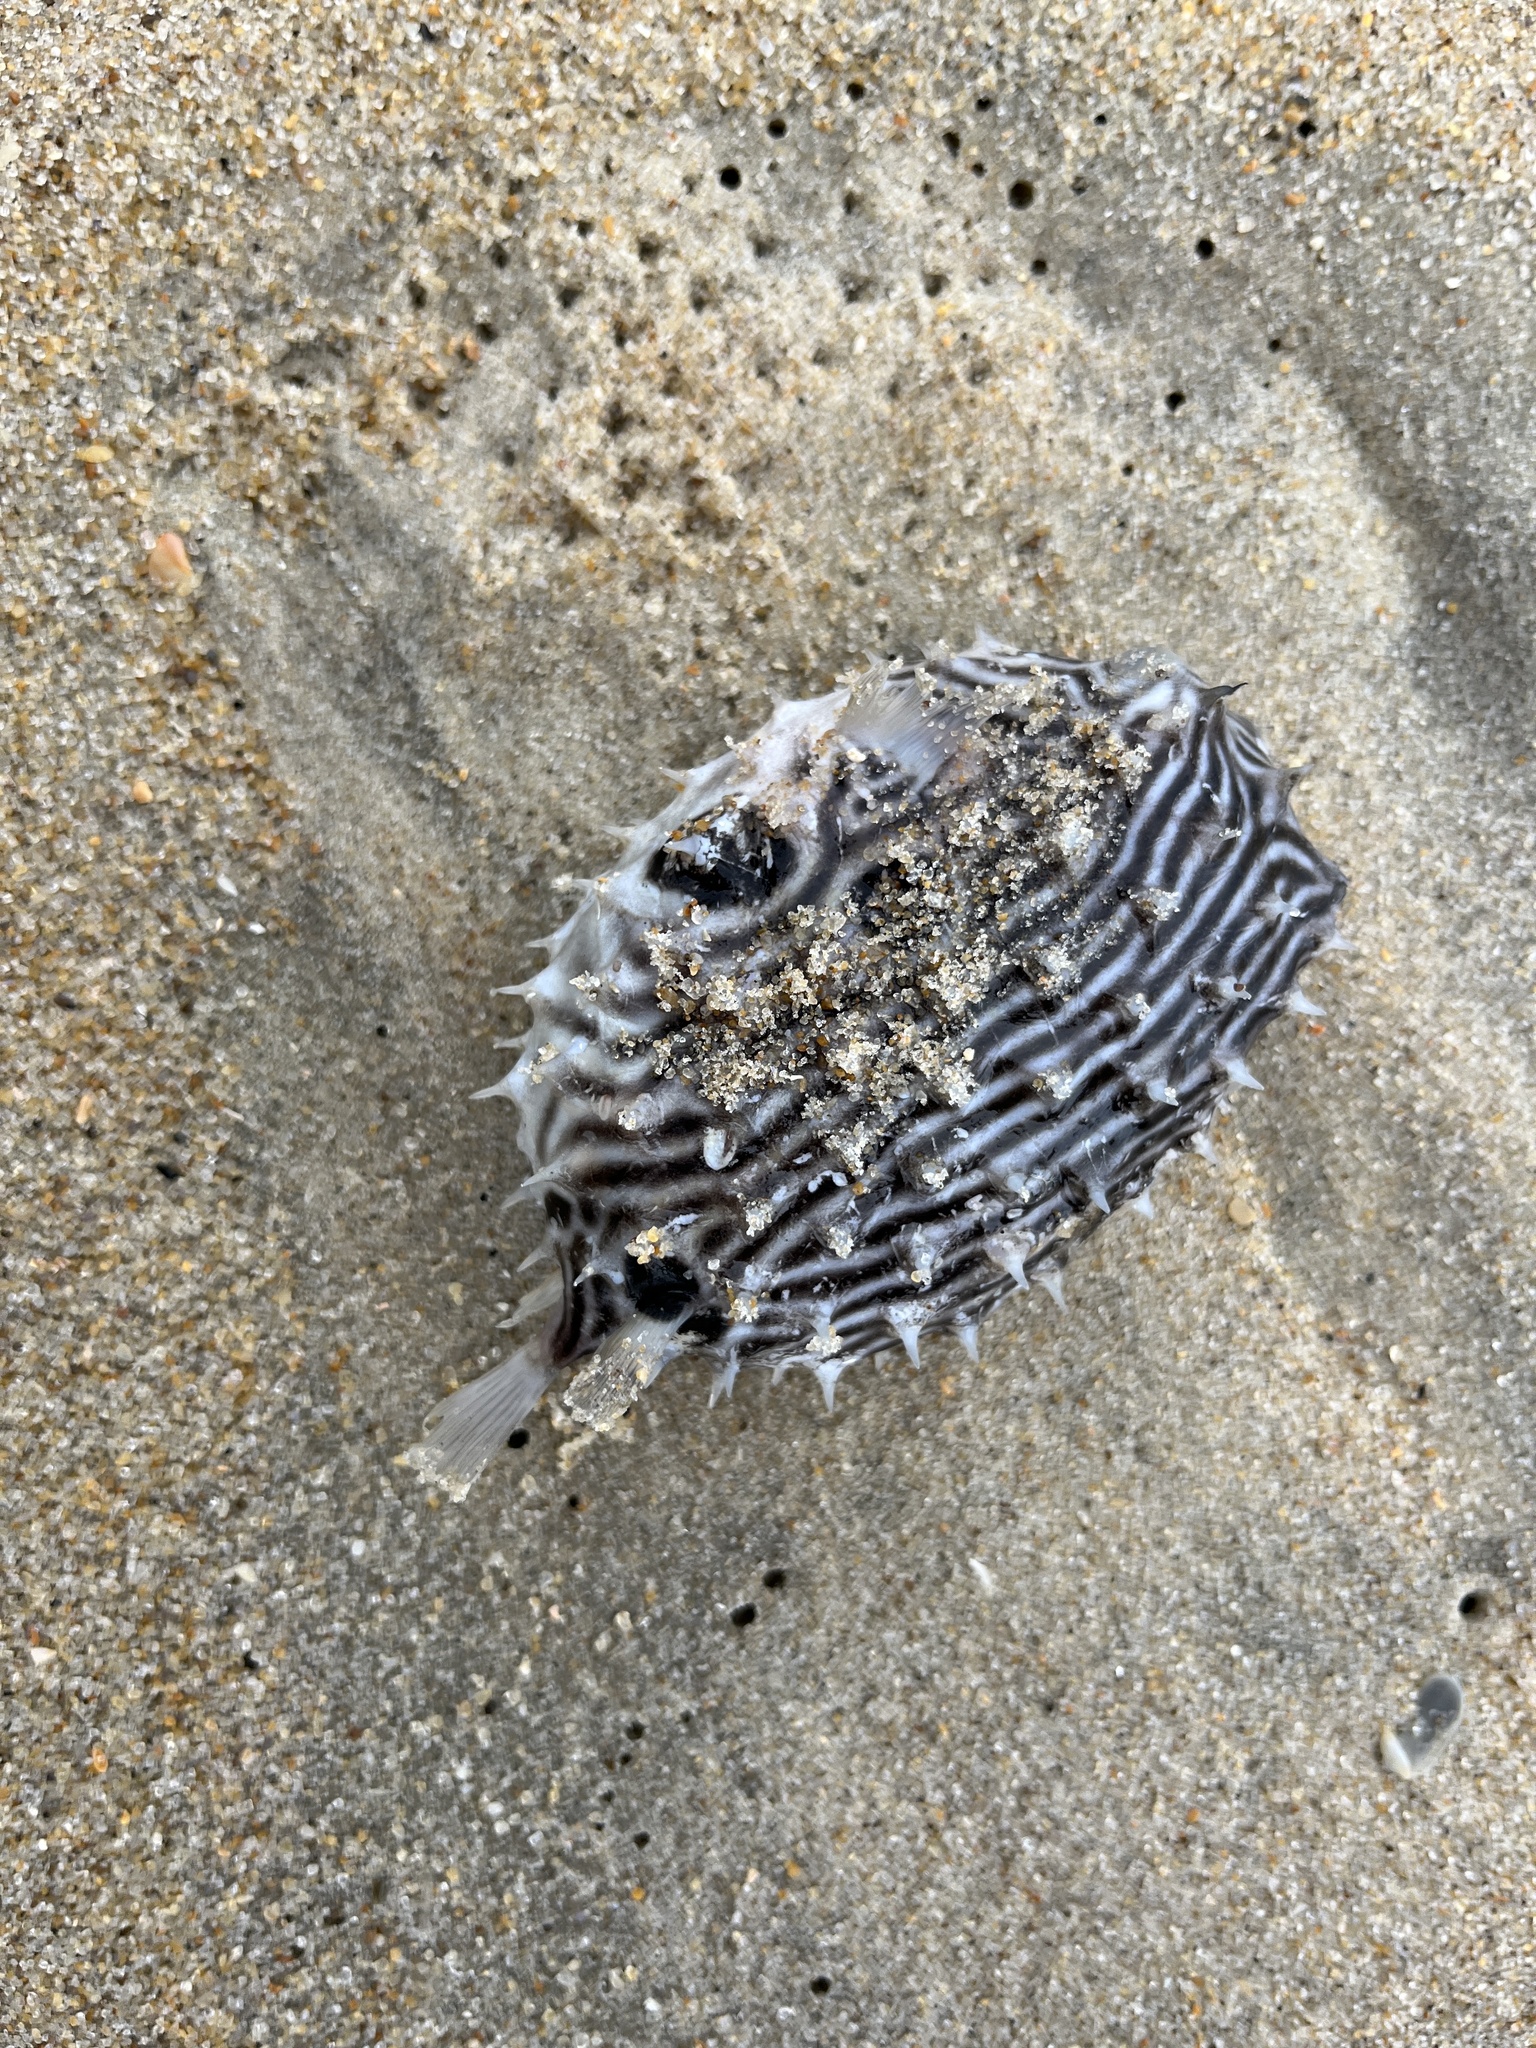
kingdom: Animalia
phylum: Chordata
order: Tetraodontiformes
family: Diodontidae
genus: Chilomycterus
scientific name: Chilomycterus schoepfii
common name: Striped burrfish
